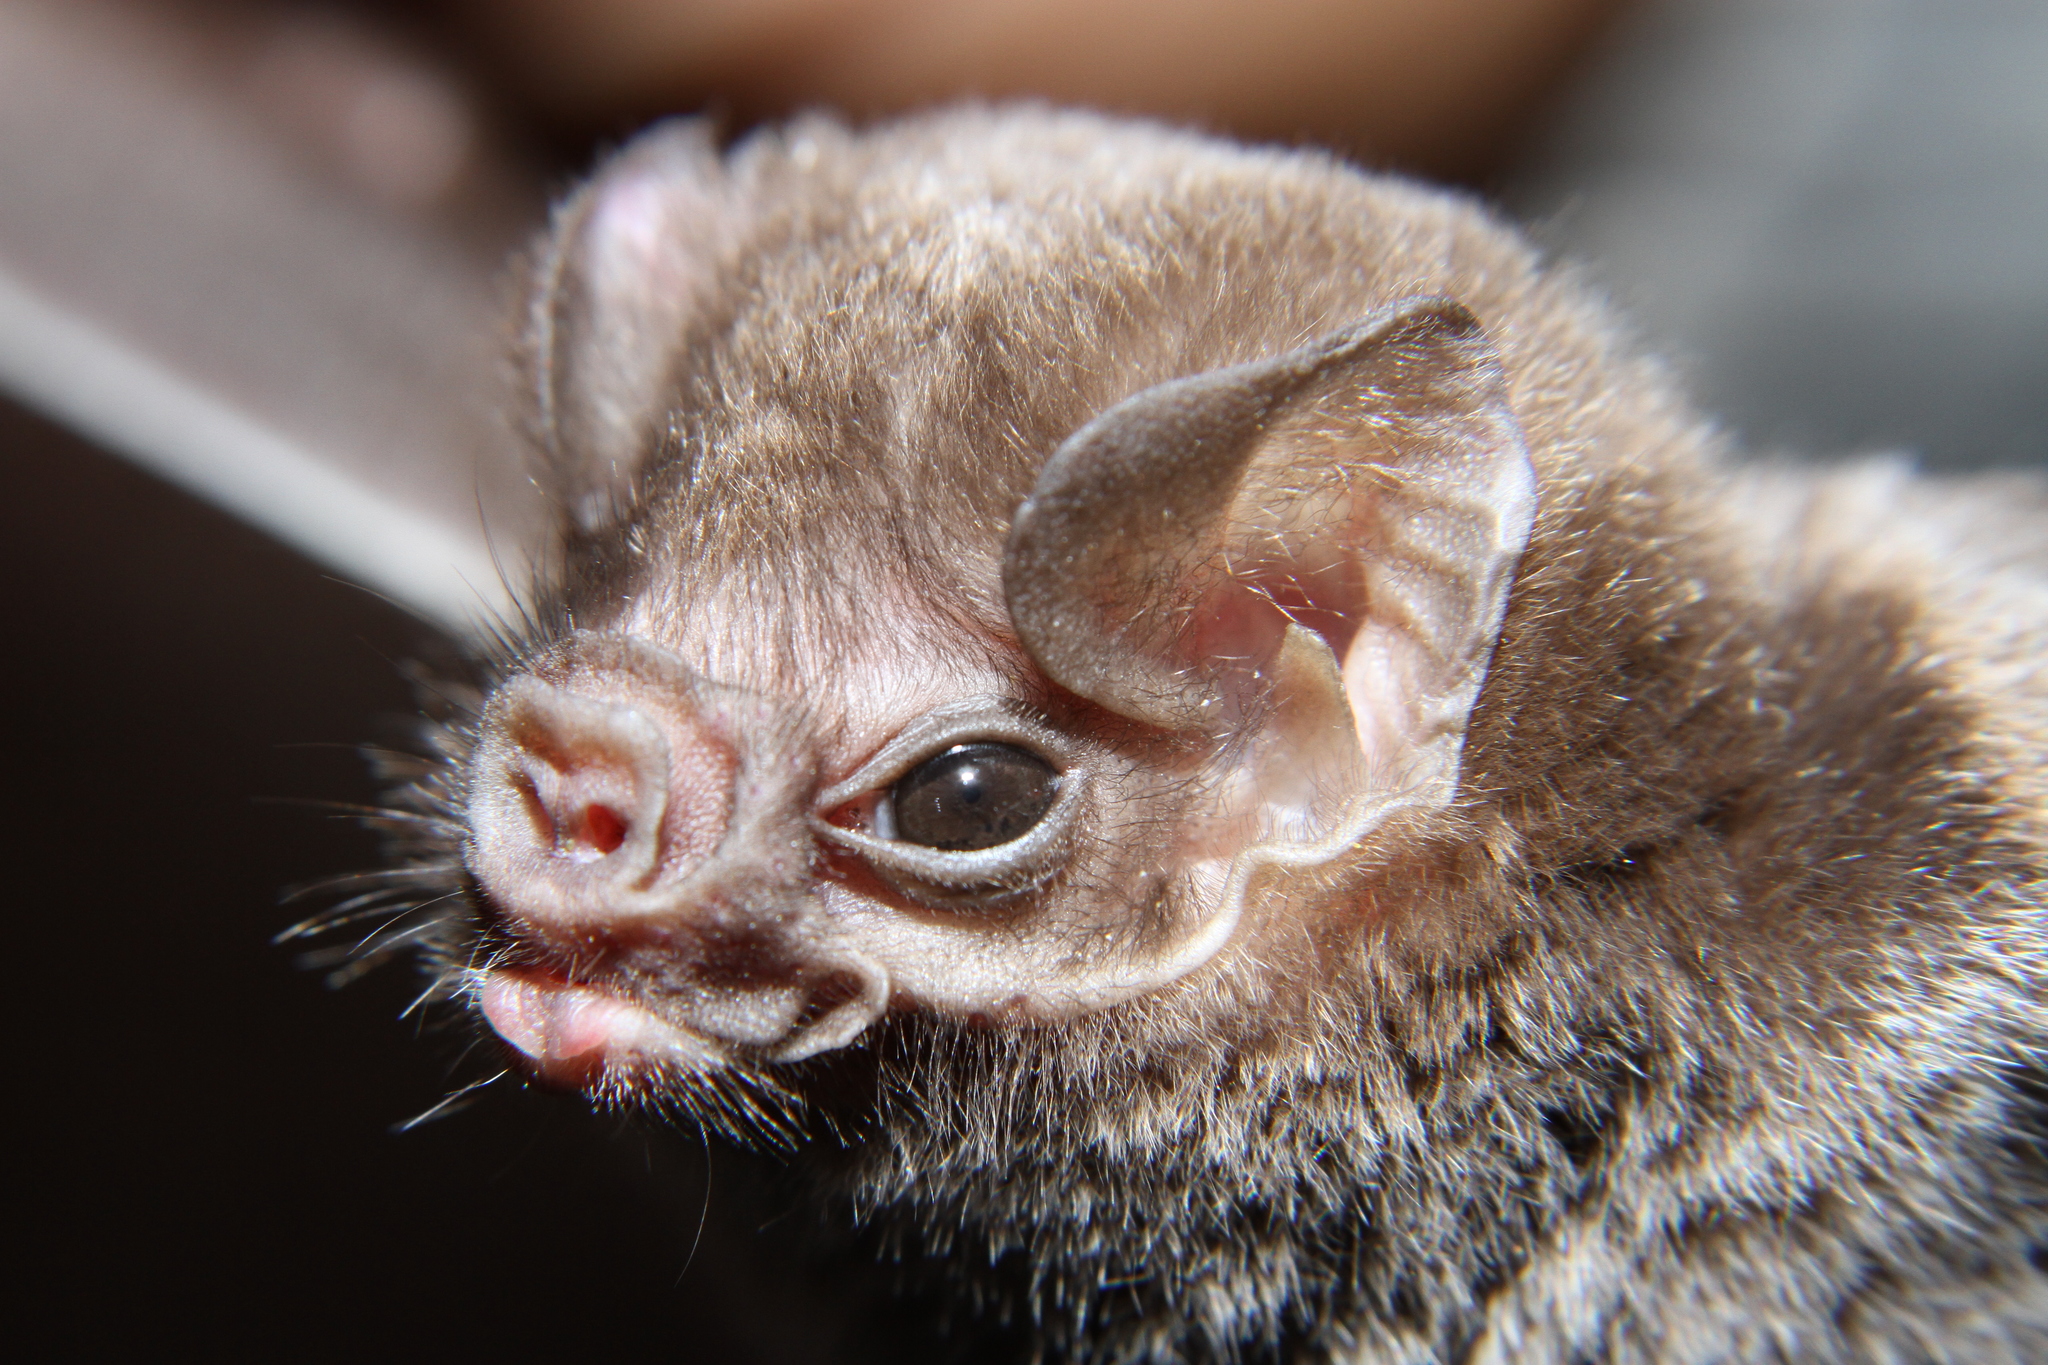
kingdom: Animalia
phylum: Chordata
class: Mammalia
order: Chiroptera
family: Phyllostomidae
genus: Diphylla
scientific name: Diphylla ecaudata
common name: Hairy-legged vampire bat
